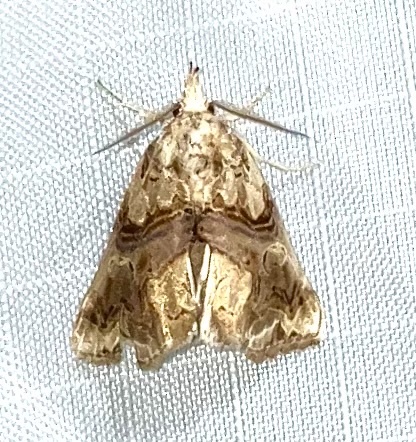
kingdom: Animalia
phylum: Arthropoda
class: Insecta
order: Lepidoptera
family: Erebidae
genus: Plusiodonta
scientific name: Plusiodonta compressipalpis
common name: Moonseed moth
